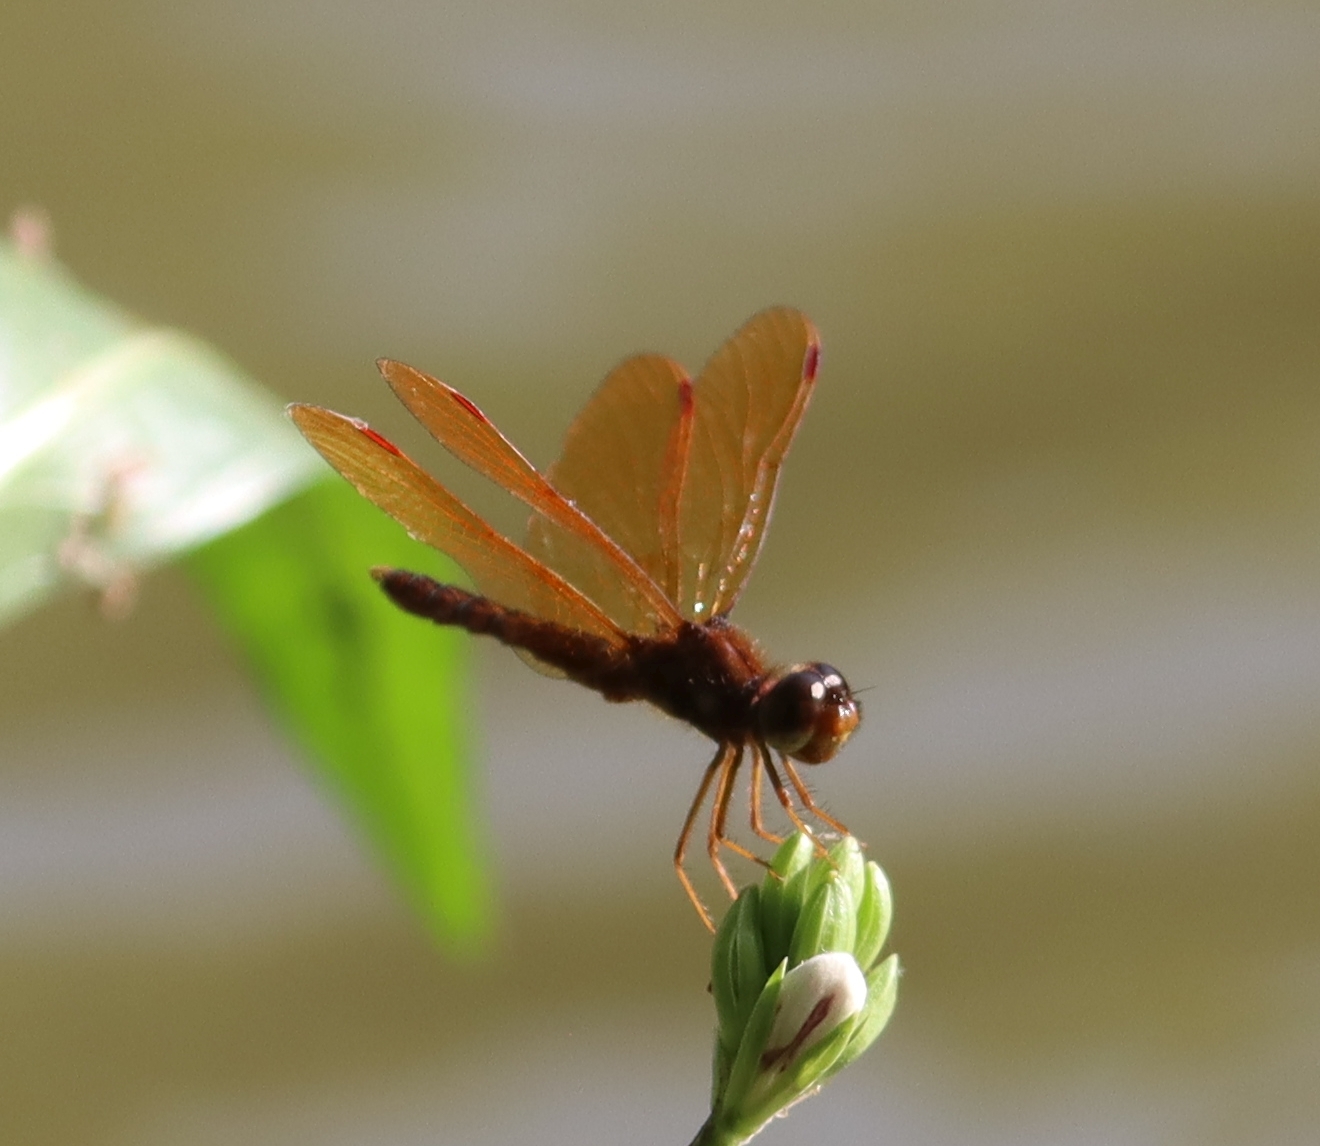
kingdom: Animalia
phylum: Arthropoda
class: Insecta
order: Odonata
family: Libellulidae
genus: Perithemis
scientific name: Perithemis tenera
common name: Eastern amberwing
